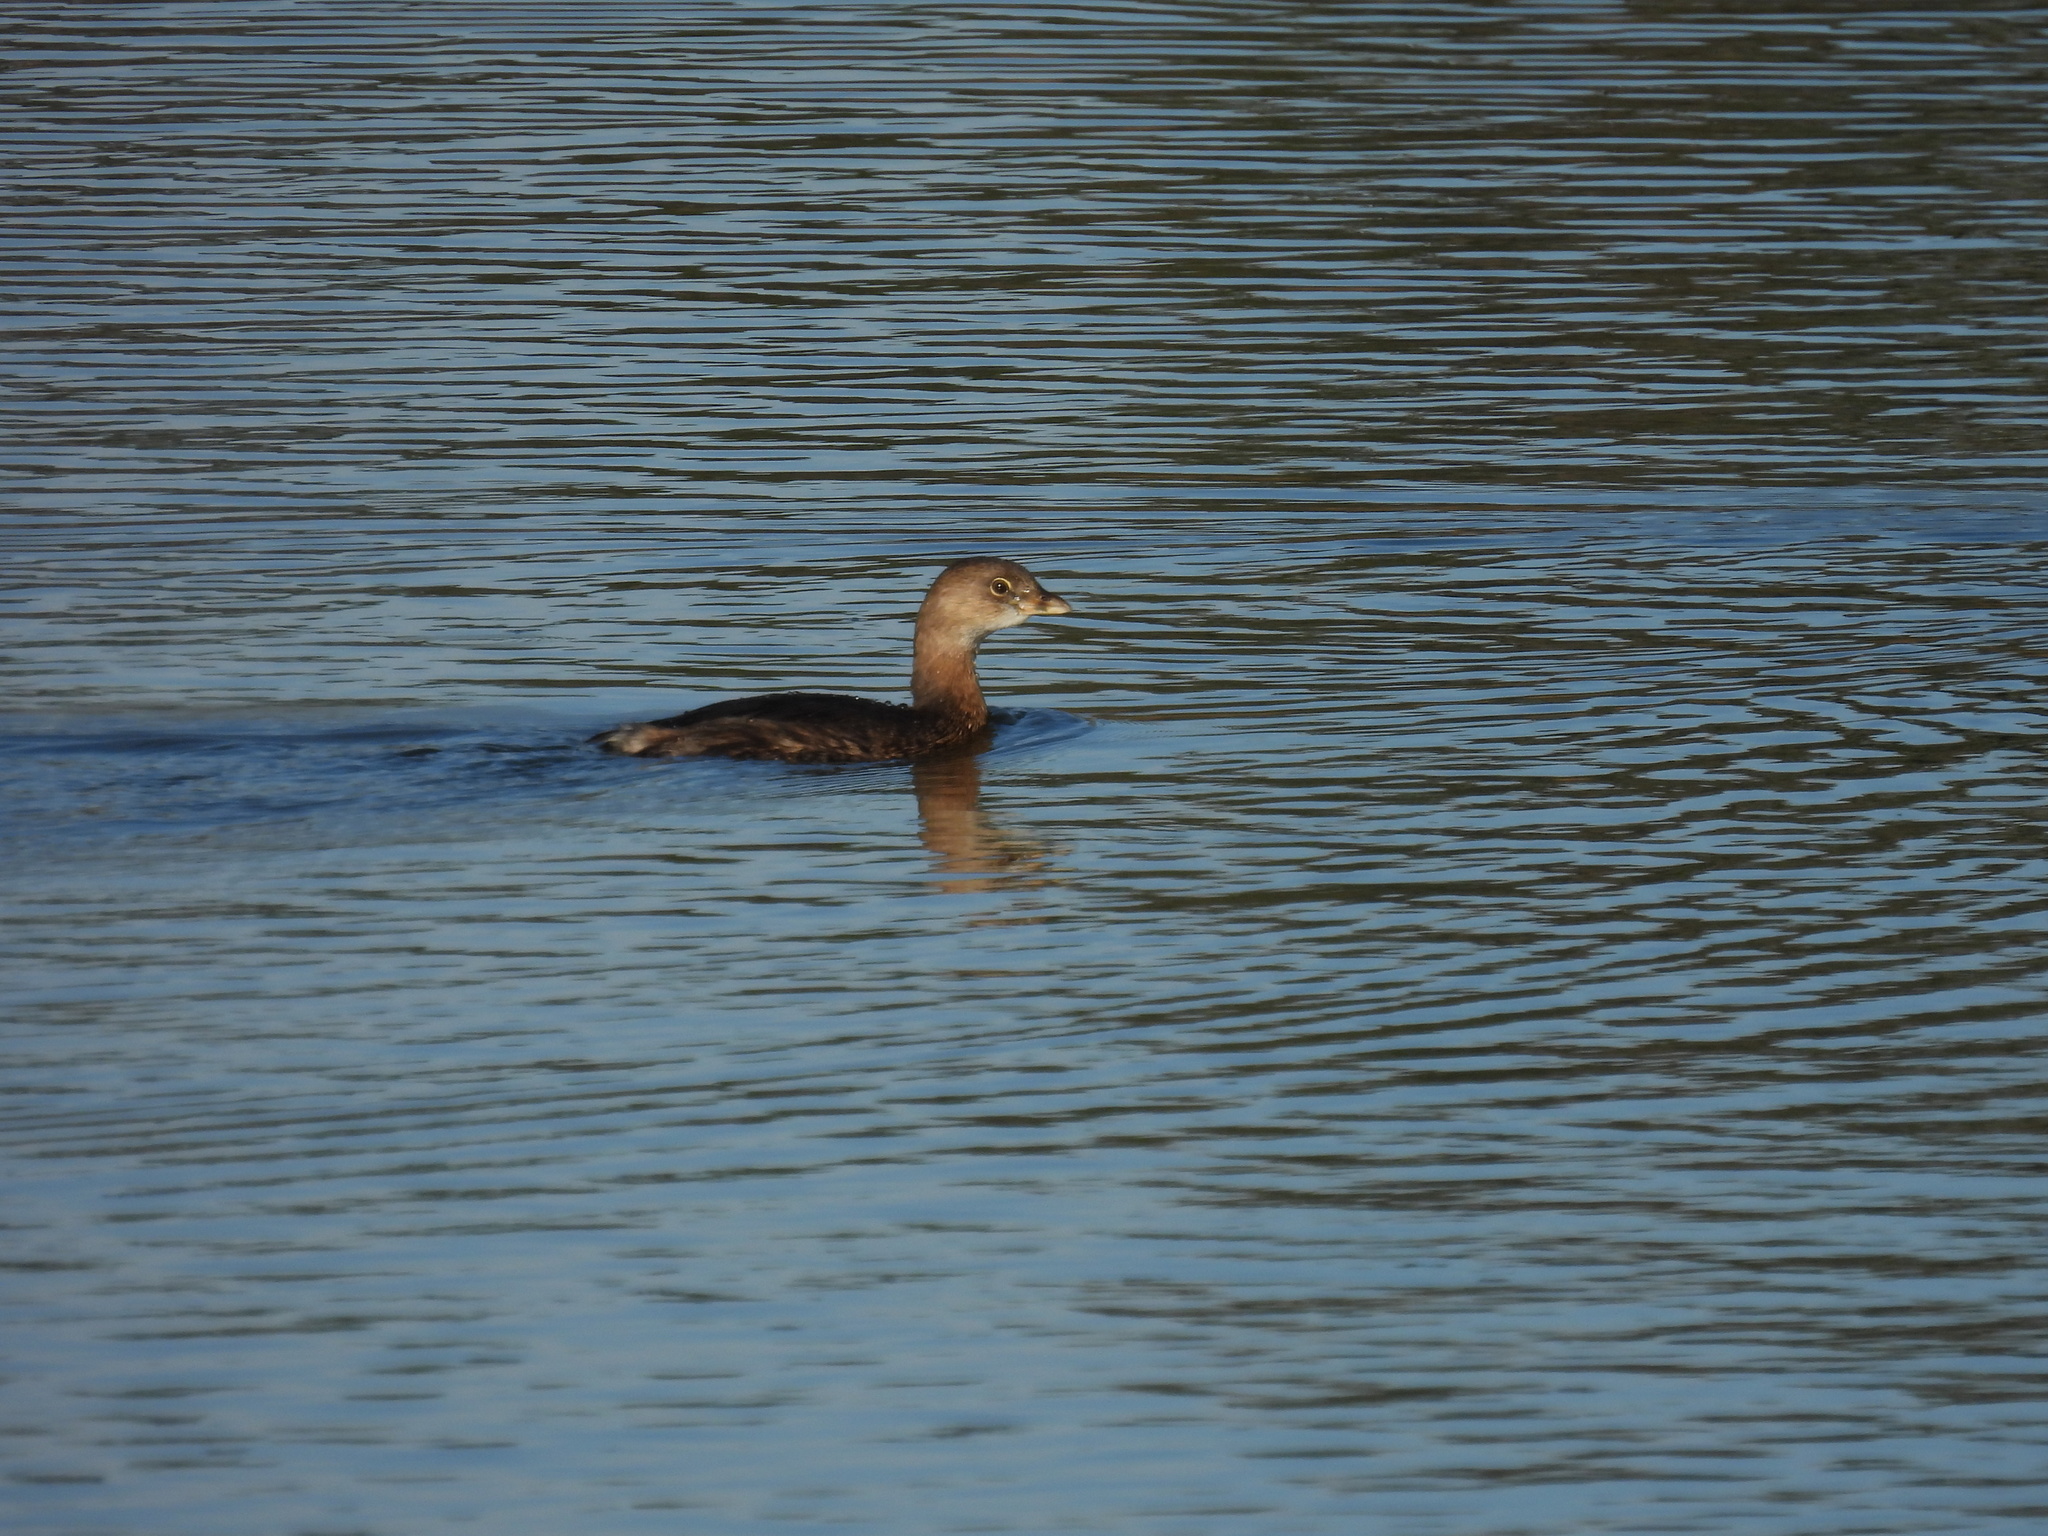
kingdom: Animalia
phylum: Chordata
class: Aves
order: Podicipediformes
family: Podicipedidae
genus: Podilymbus
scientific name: Podilymbus podiceps
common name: Pied-billed grebe
